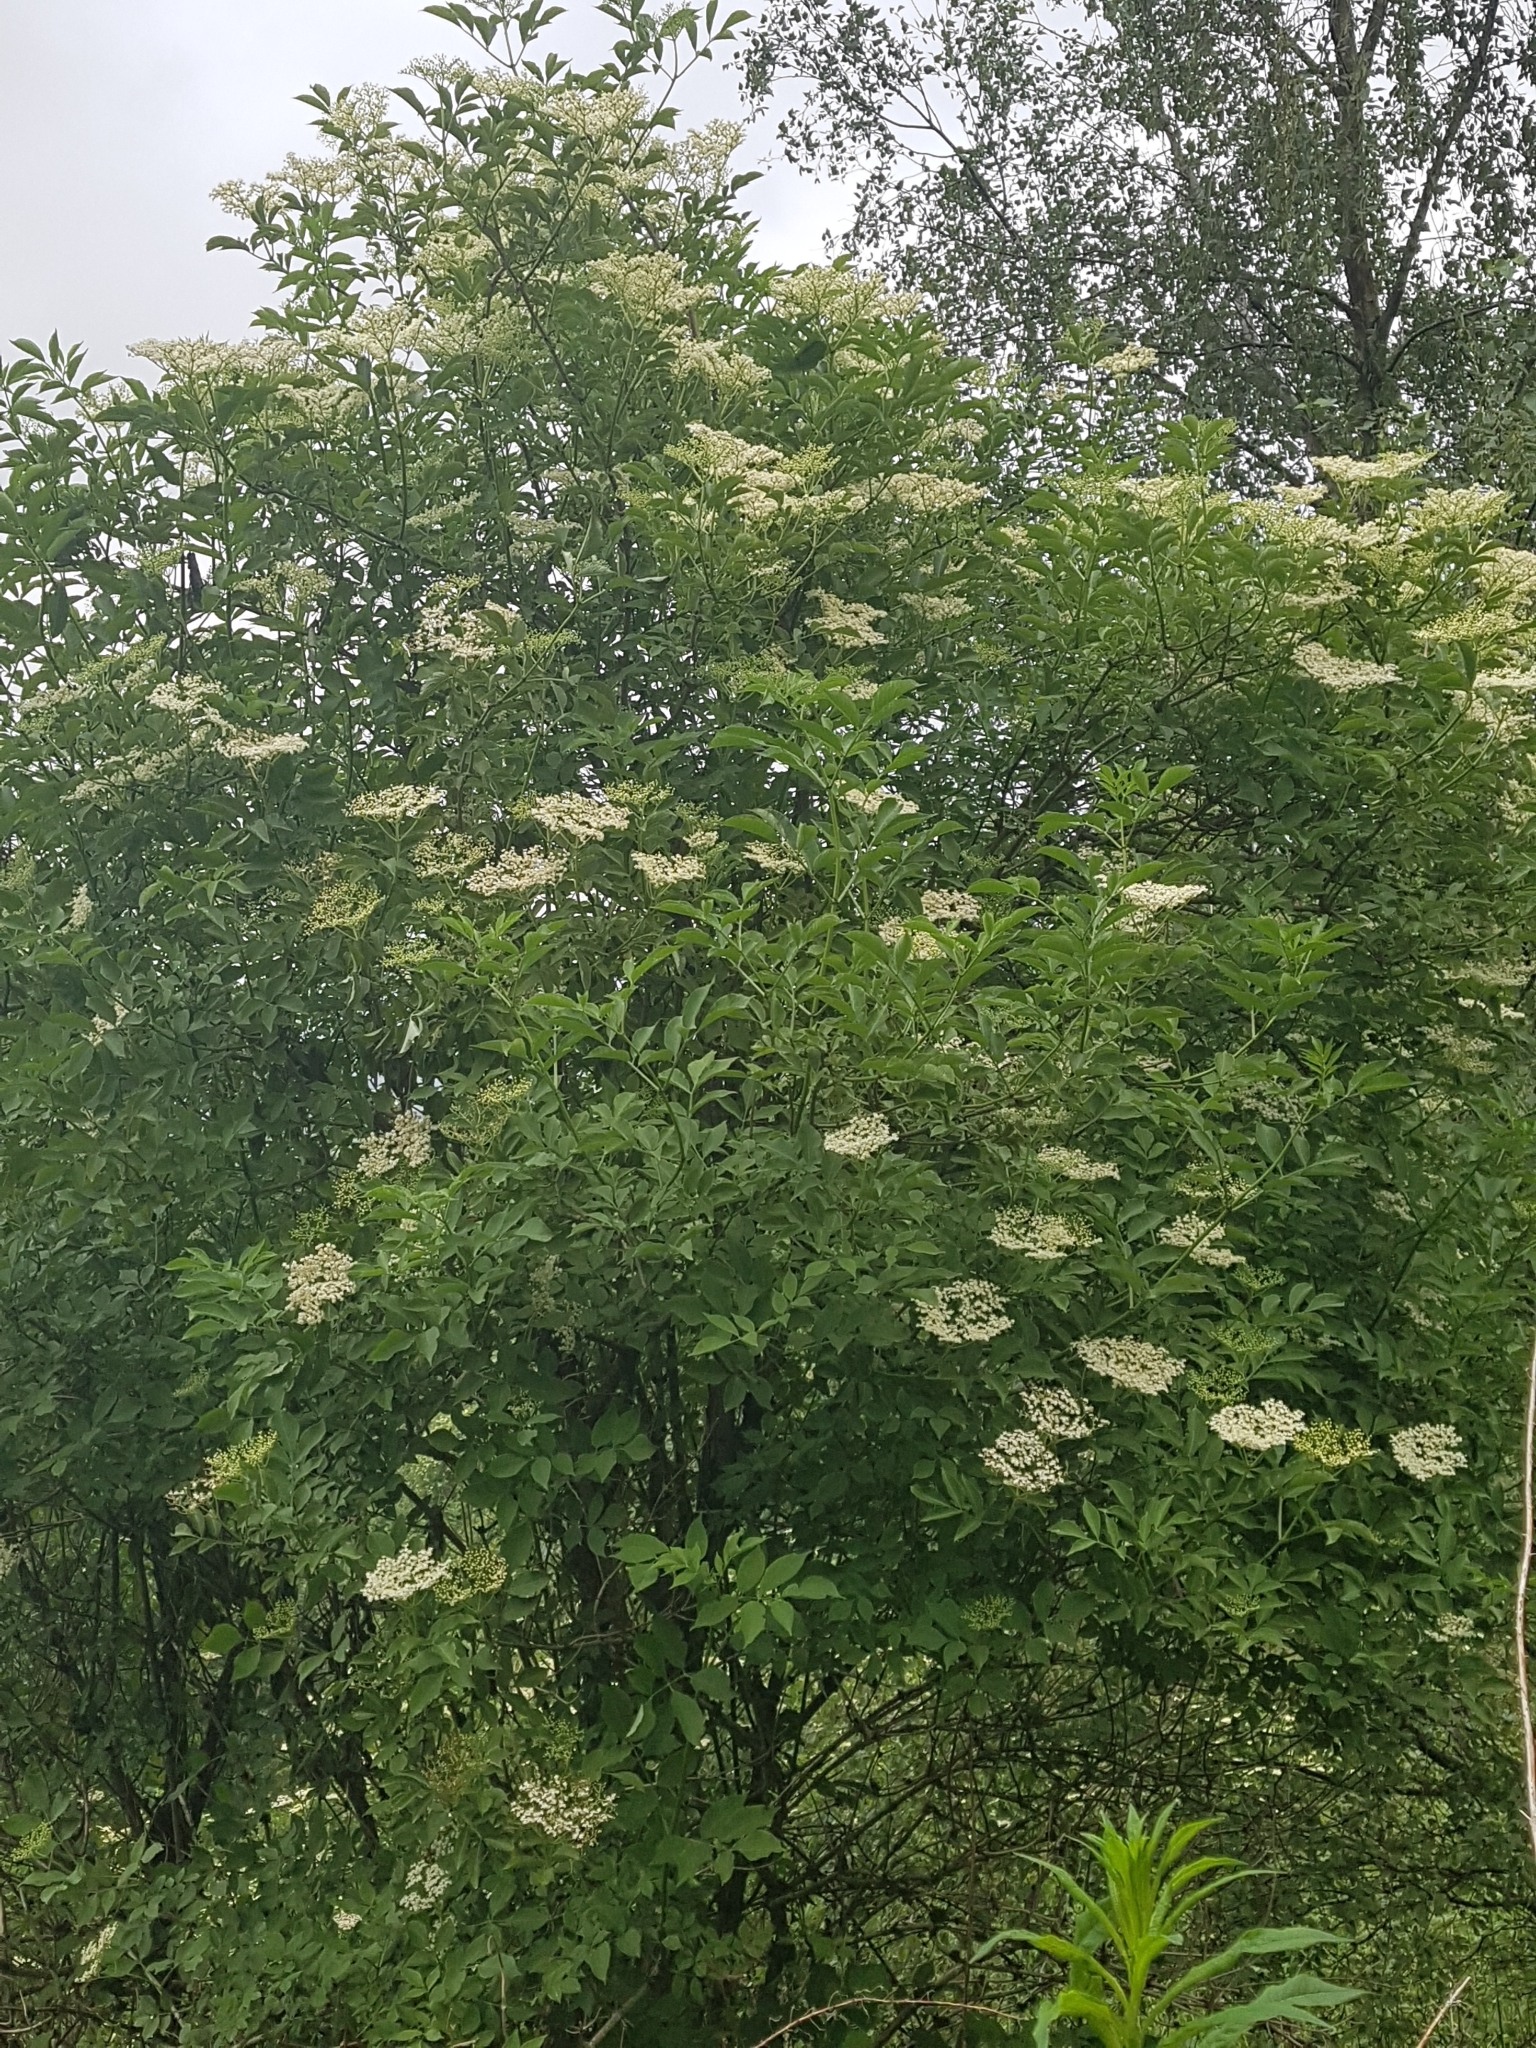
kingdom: Plantae
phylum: Tracheophyta
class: Magnoliopsida
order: Dipsacales
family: Viburnaceae
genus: Sambucus
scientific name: Sambucus nigra
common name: Elder
